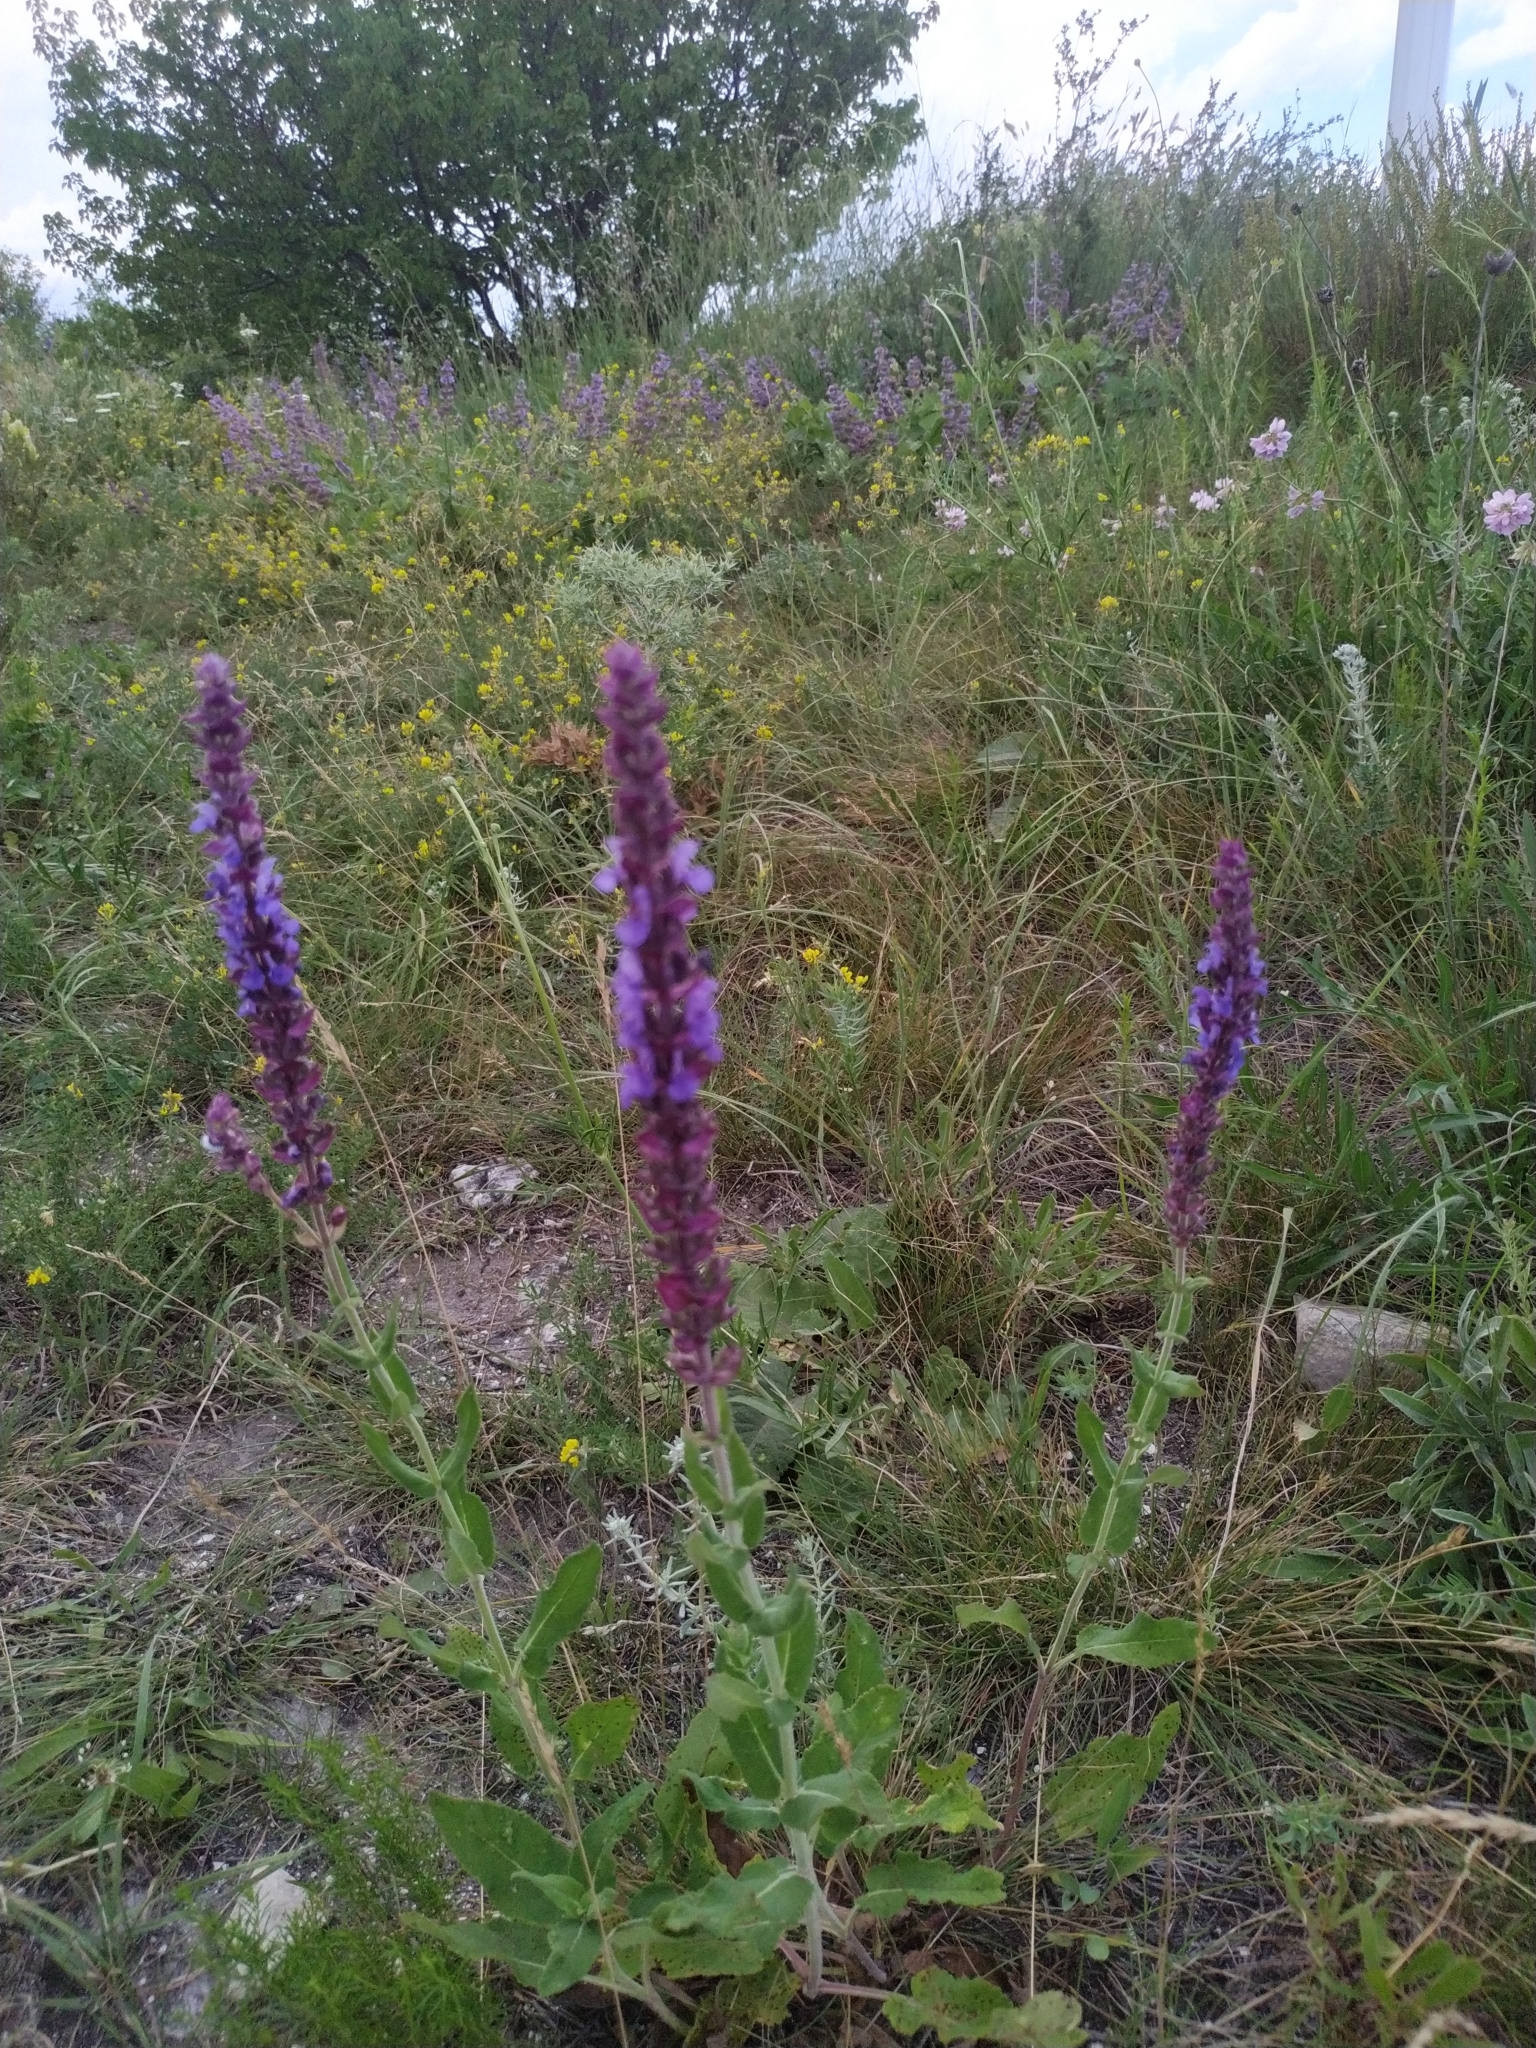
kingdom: Plantae
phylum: Tracheophyta
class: Magnoliopsida
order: Lamiales
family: Lamiaceae
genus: Salvia
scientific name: Salvia nemorosa
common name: Balkan clary
